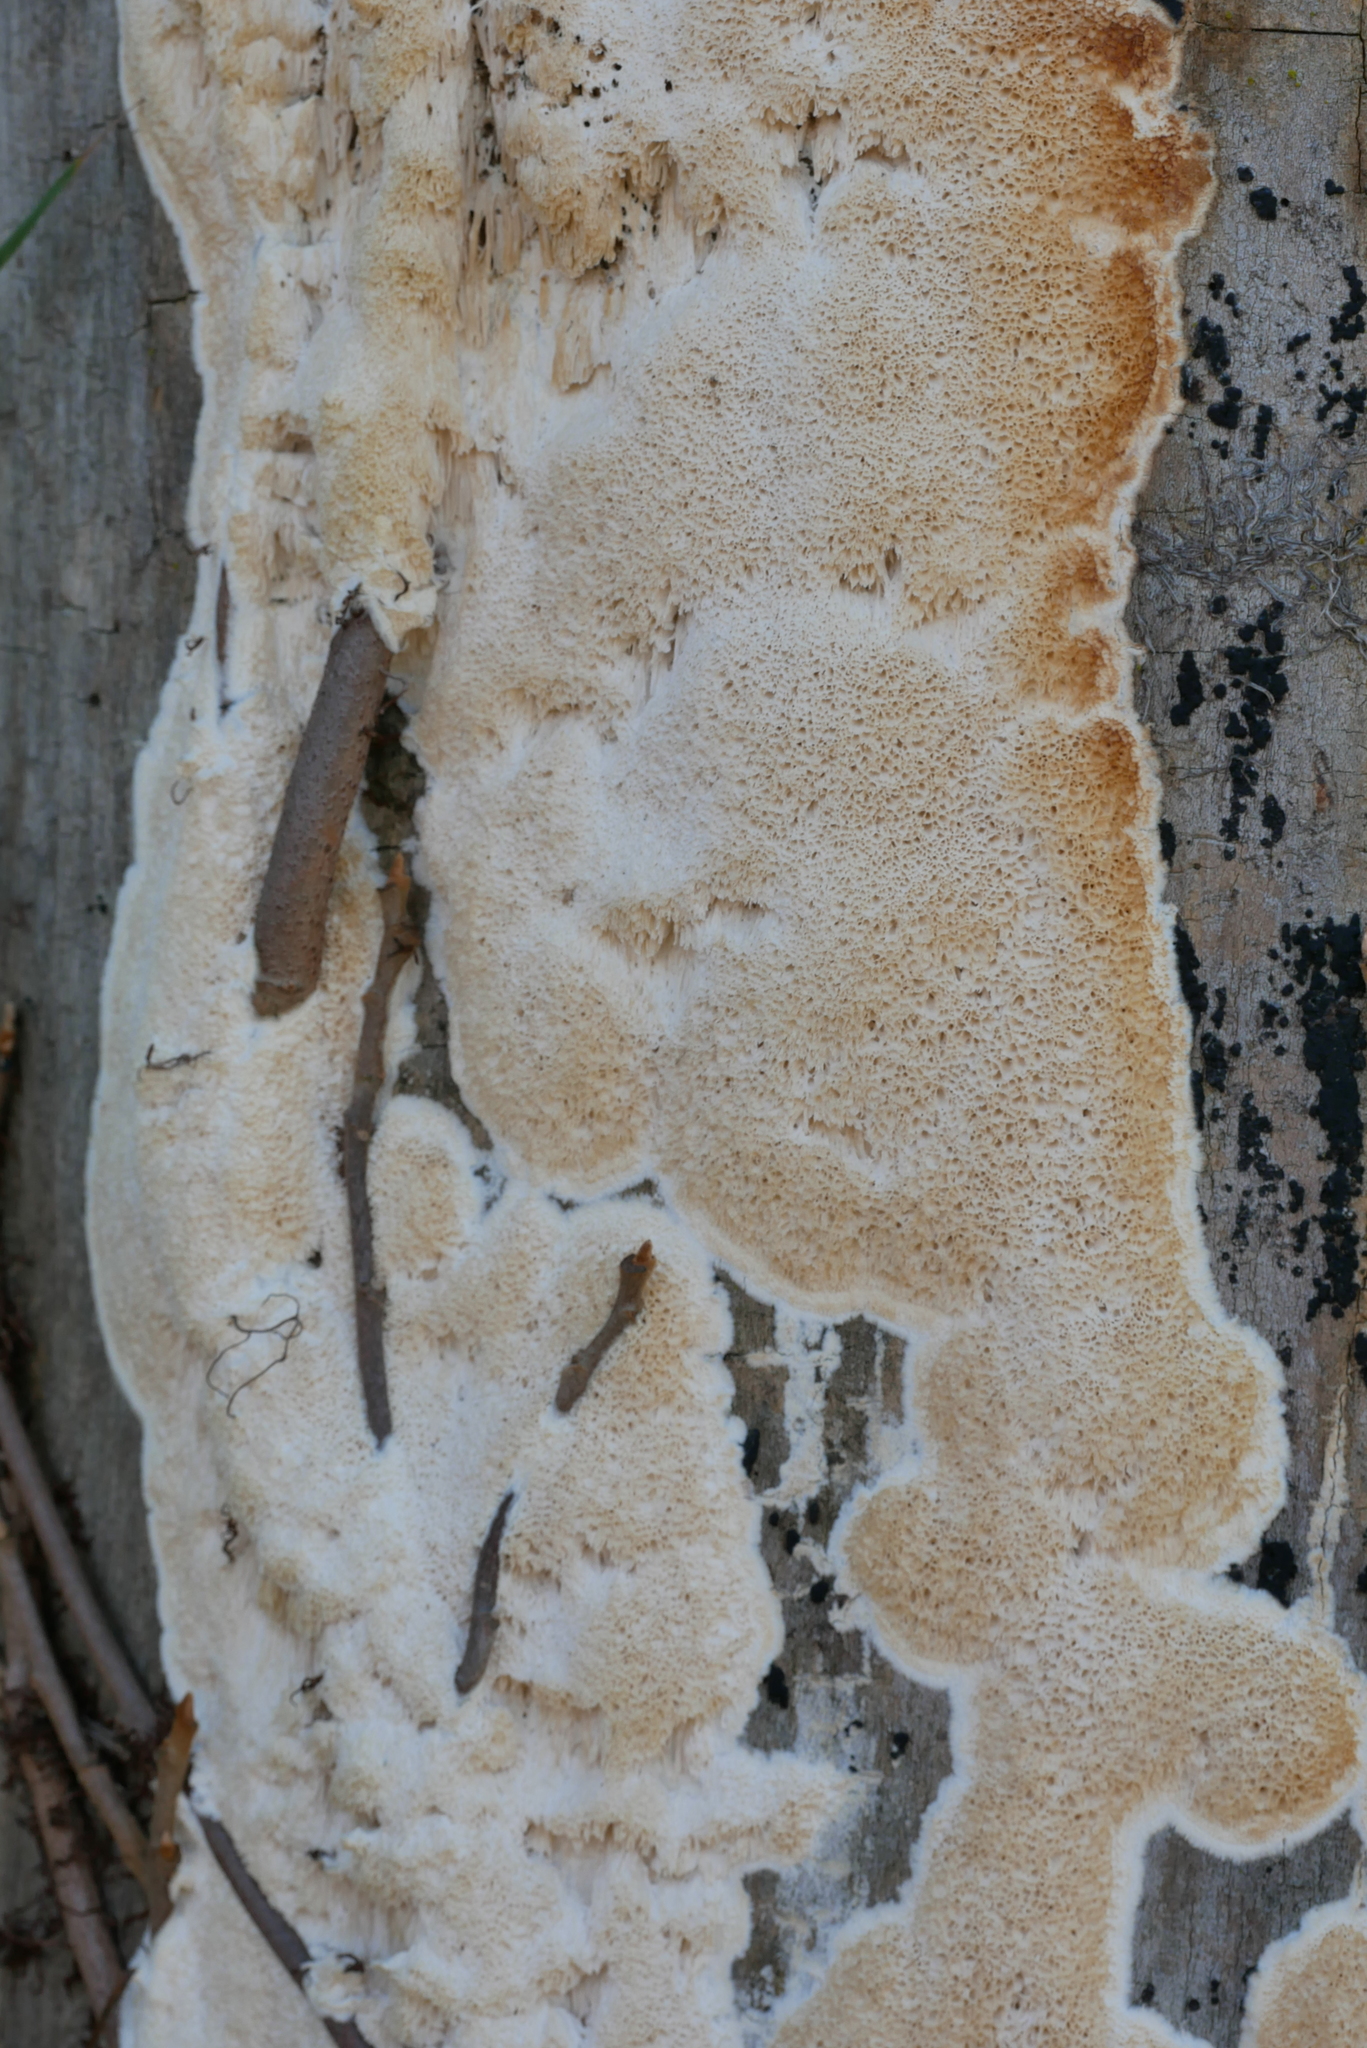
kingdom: Fungi
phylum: Basidiomycota
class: Agaricomycetes
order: Polyporales
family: Irpicaceae
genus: Irpex
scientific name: Irpex laceratus
